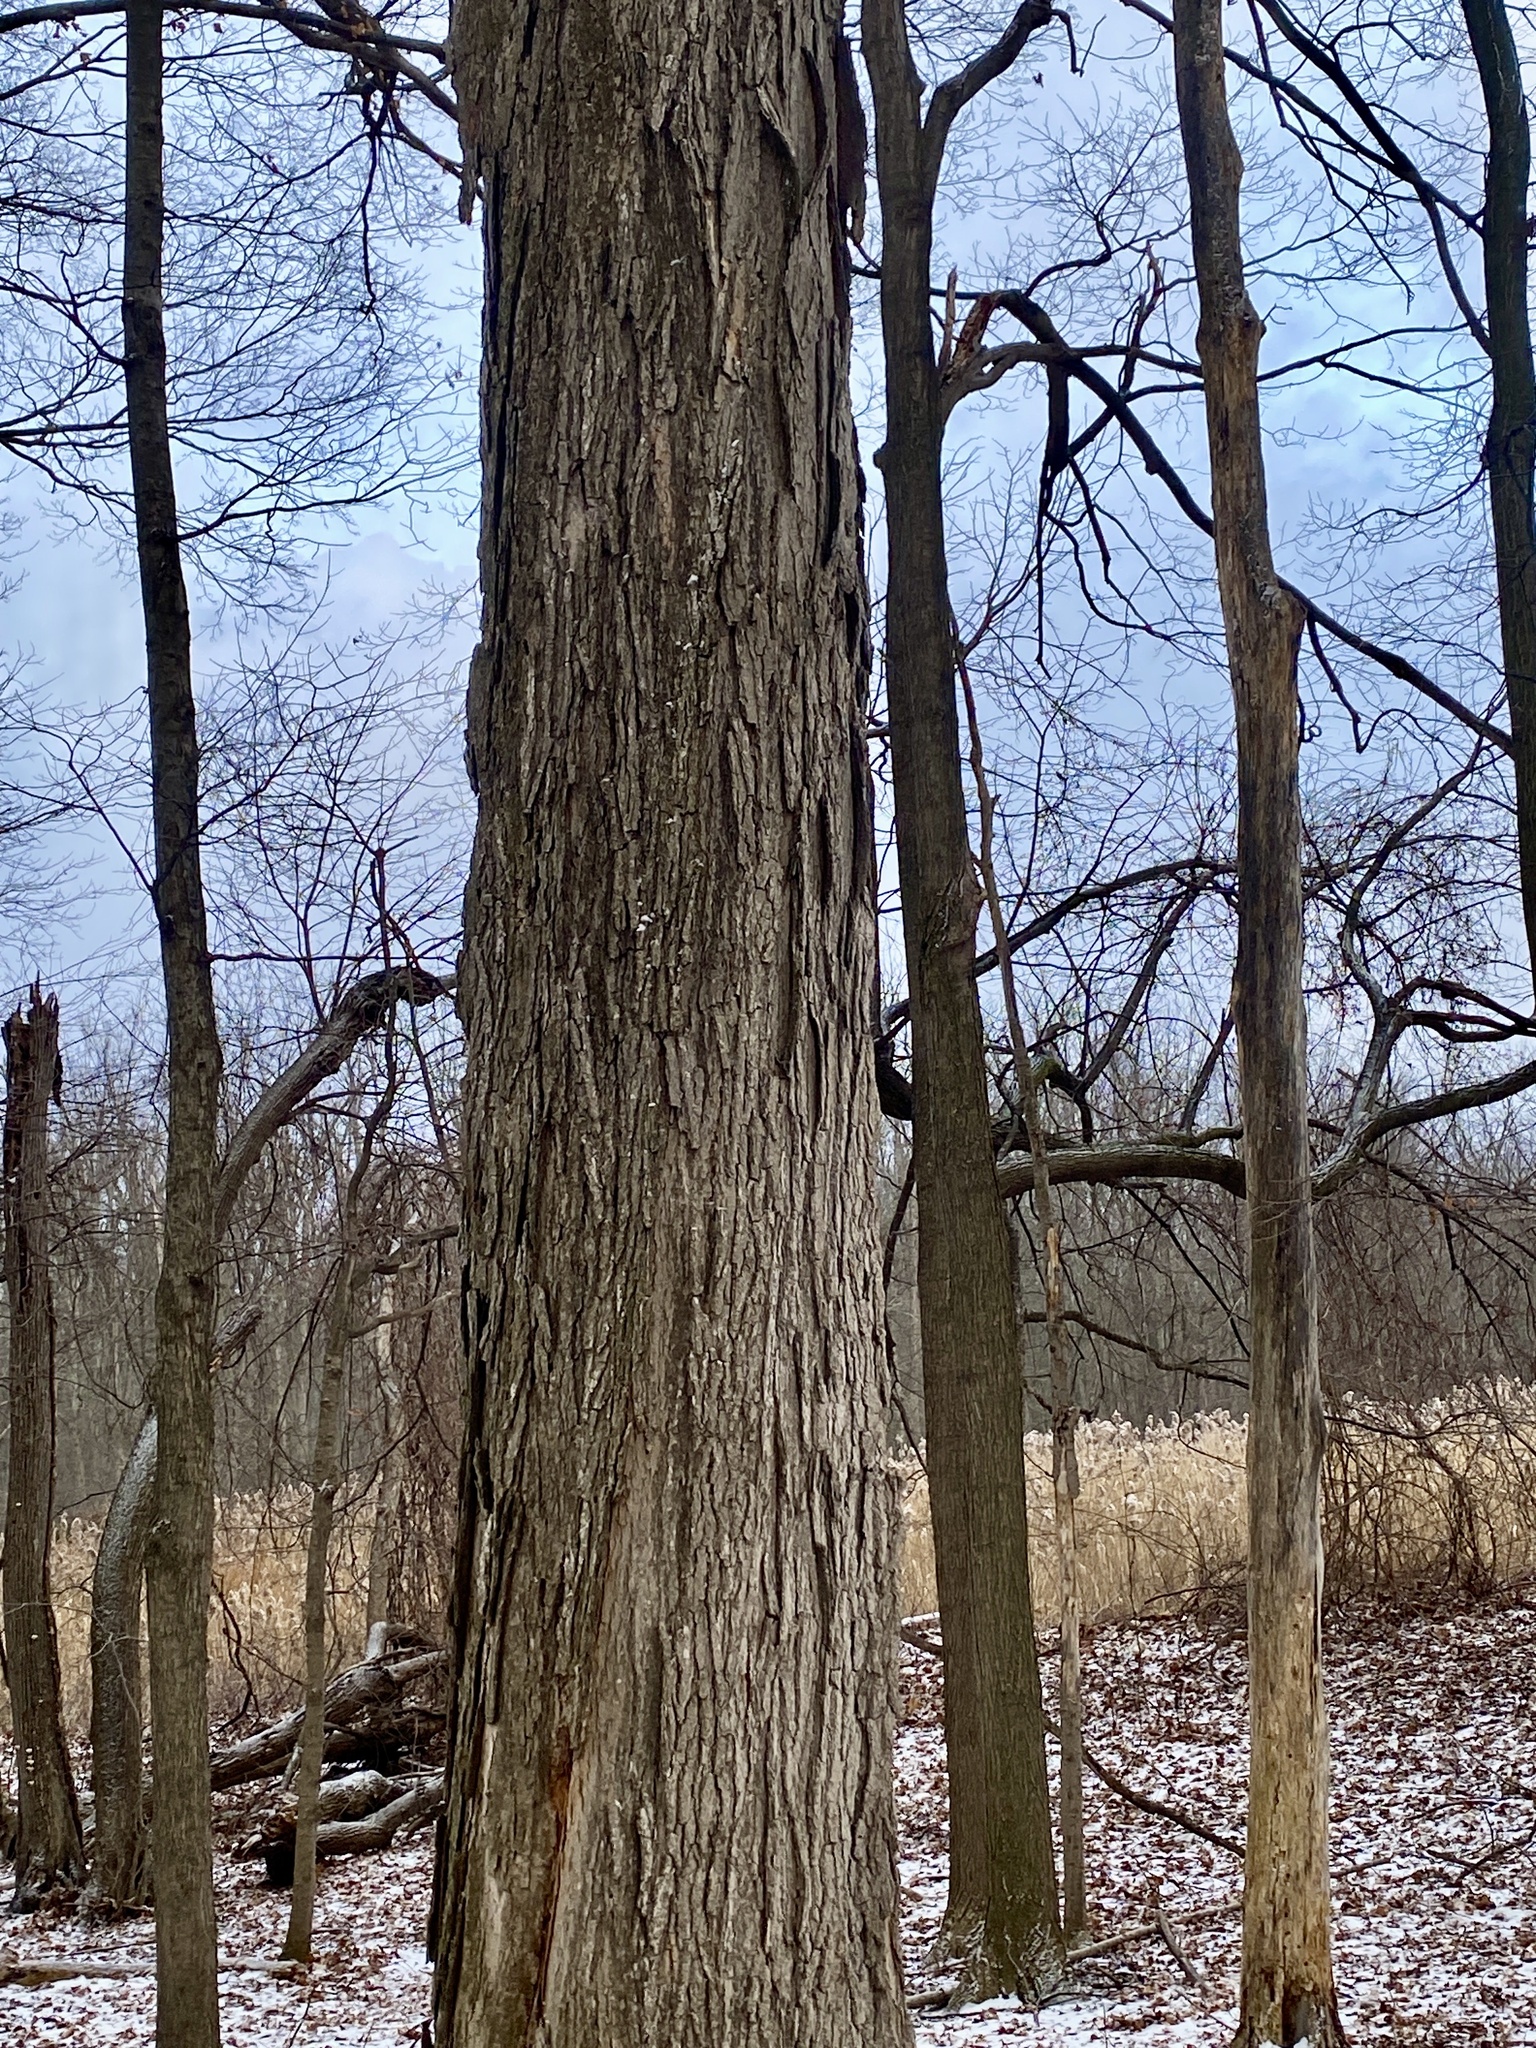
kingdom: Plantae
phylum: Tracheophyta
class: Magnoliopsida
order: Fagales
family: Juglandaceae
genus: Carya
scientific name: Carya ovata
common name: Shagbark hickory
